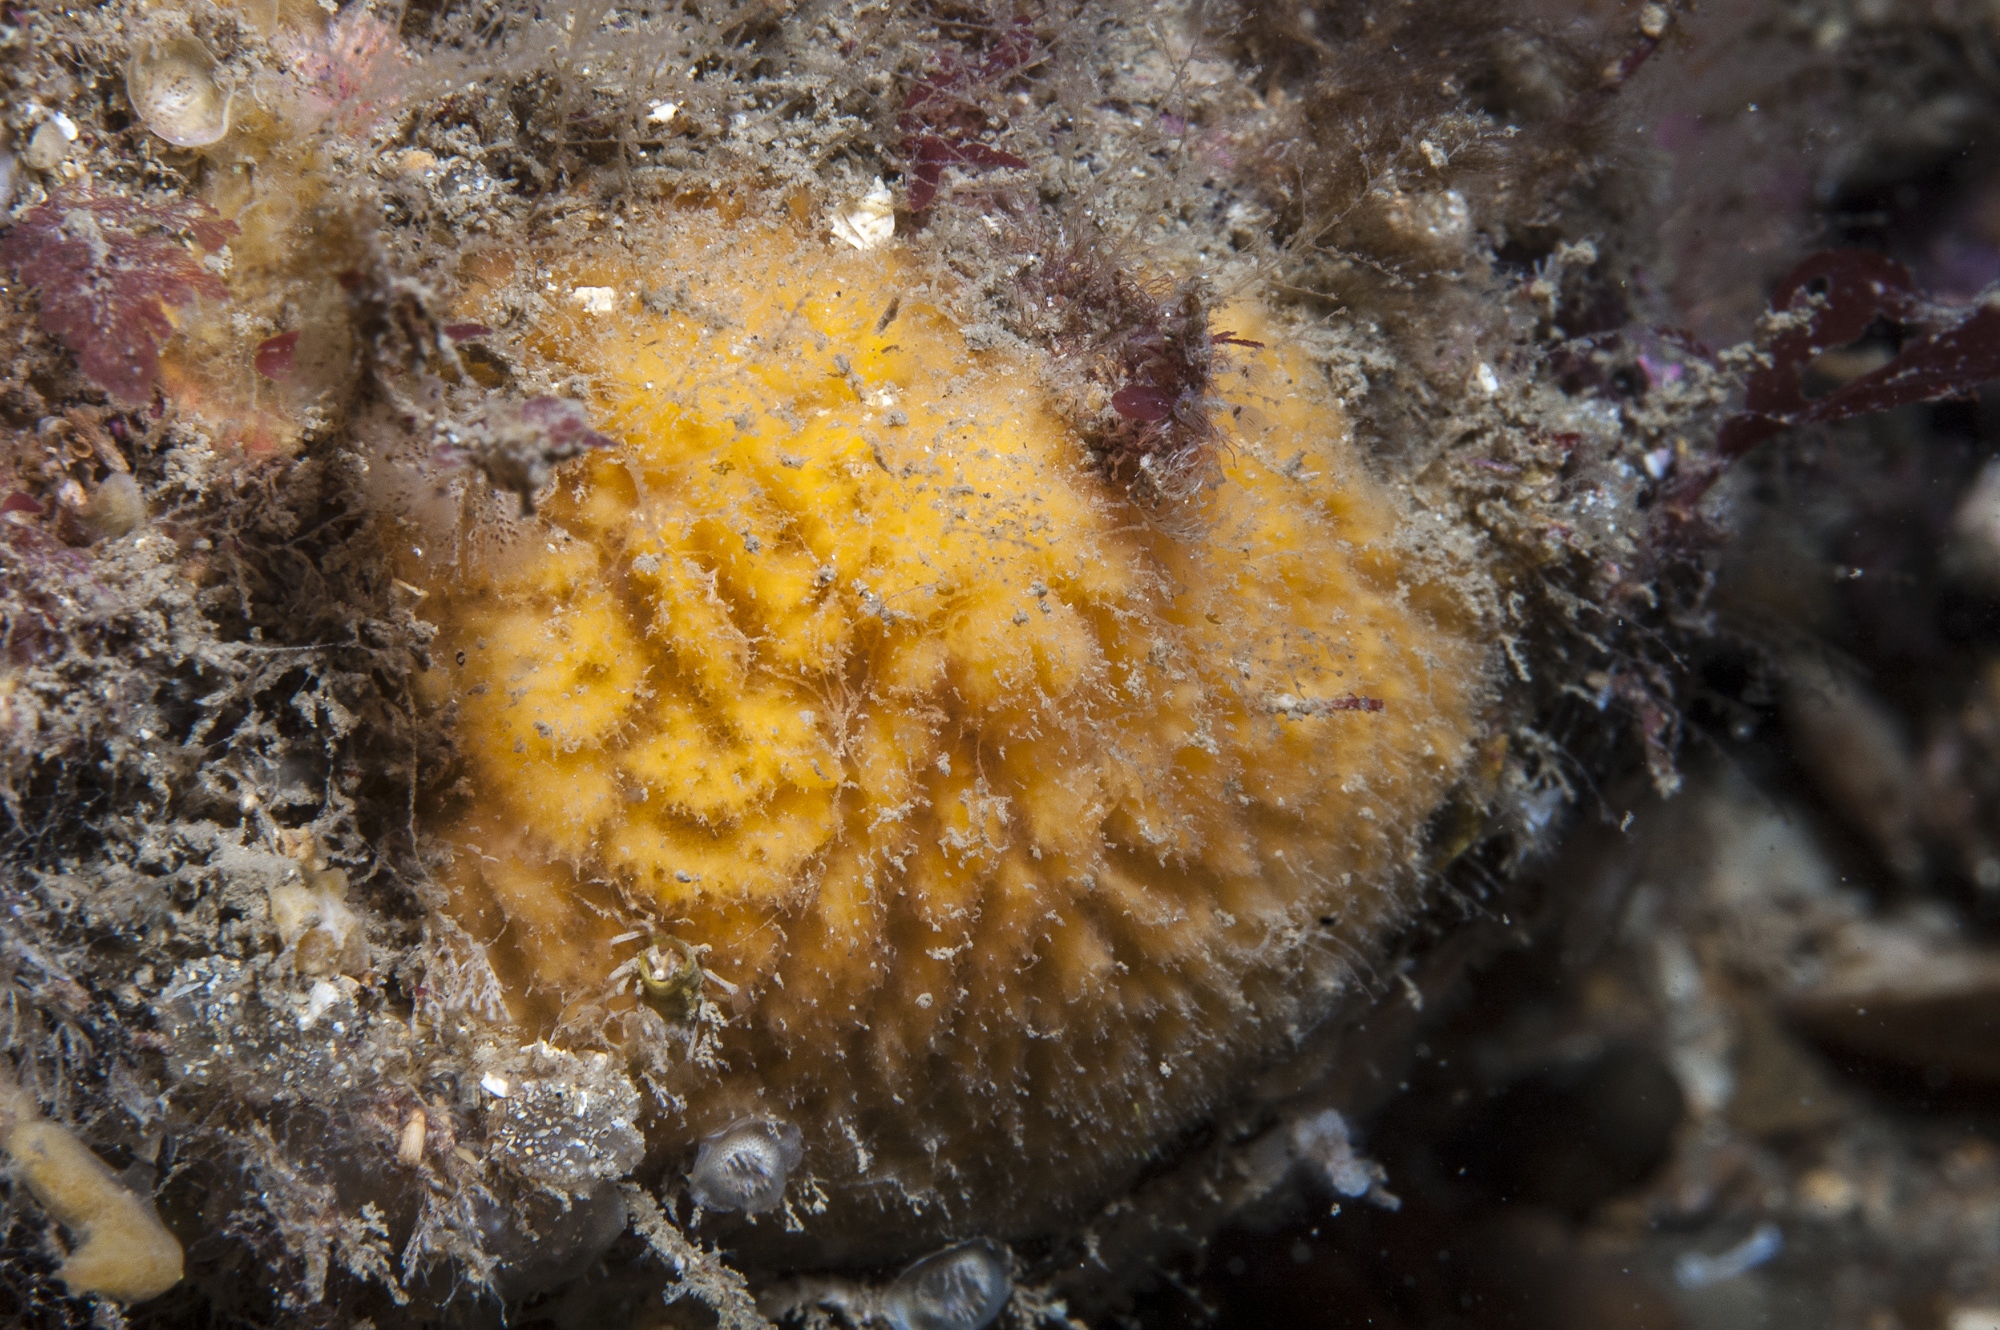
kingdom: Animalia
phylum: Porifera
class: Demospongiae
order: Axinellida
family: Axinellidae
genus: Axinella
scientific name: Axinella parva
